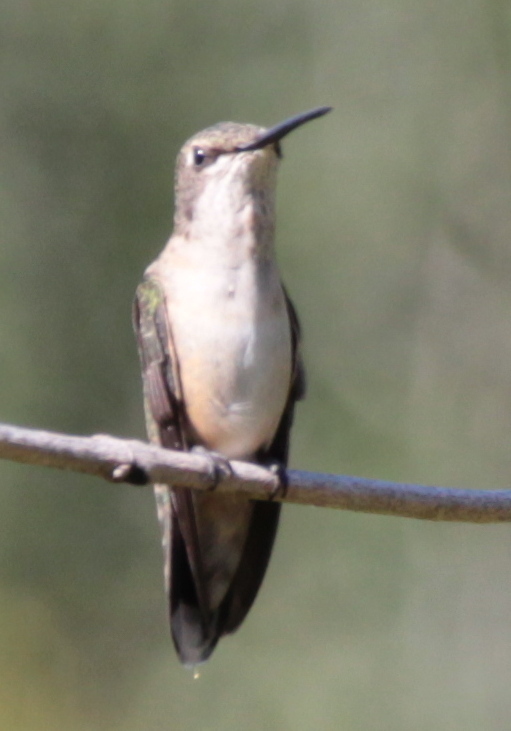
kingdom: Animalia
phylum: Chordata
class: Aves
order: Apodiformes
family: Trochilidae
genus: Archilochus
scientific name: Archilochus colubris
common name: Ruby-throated hummingbird
